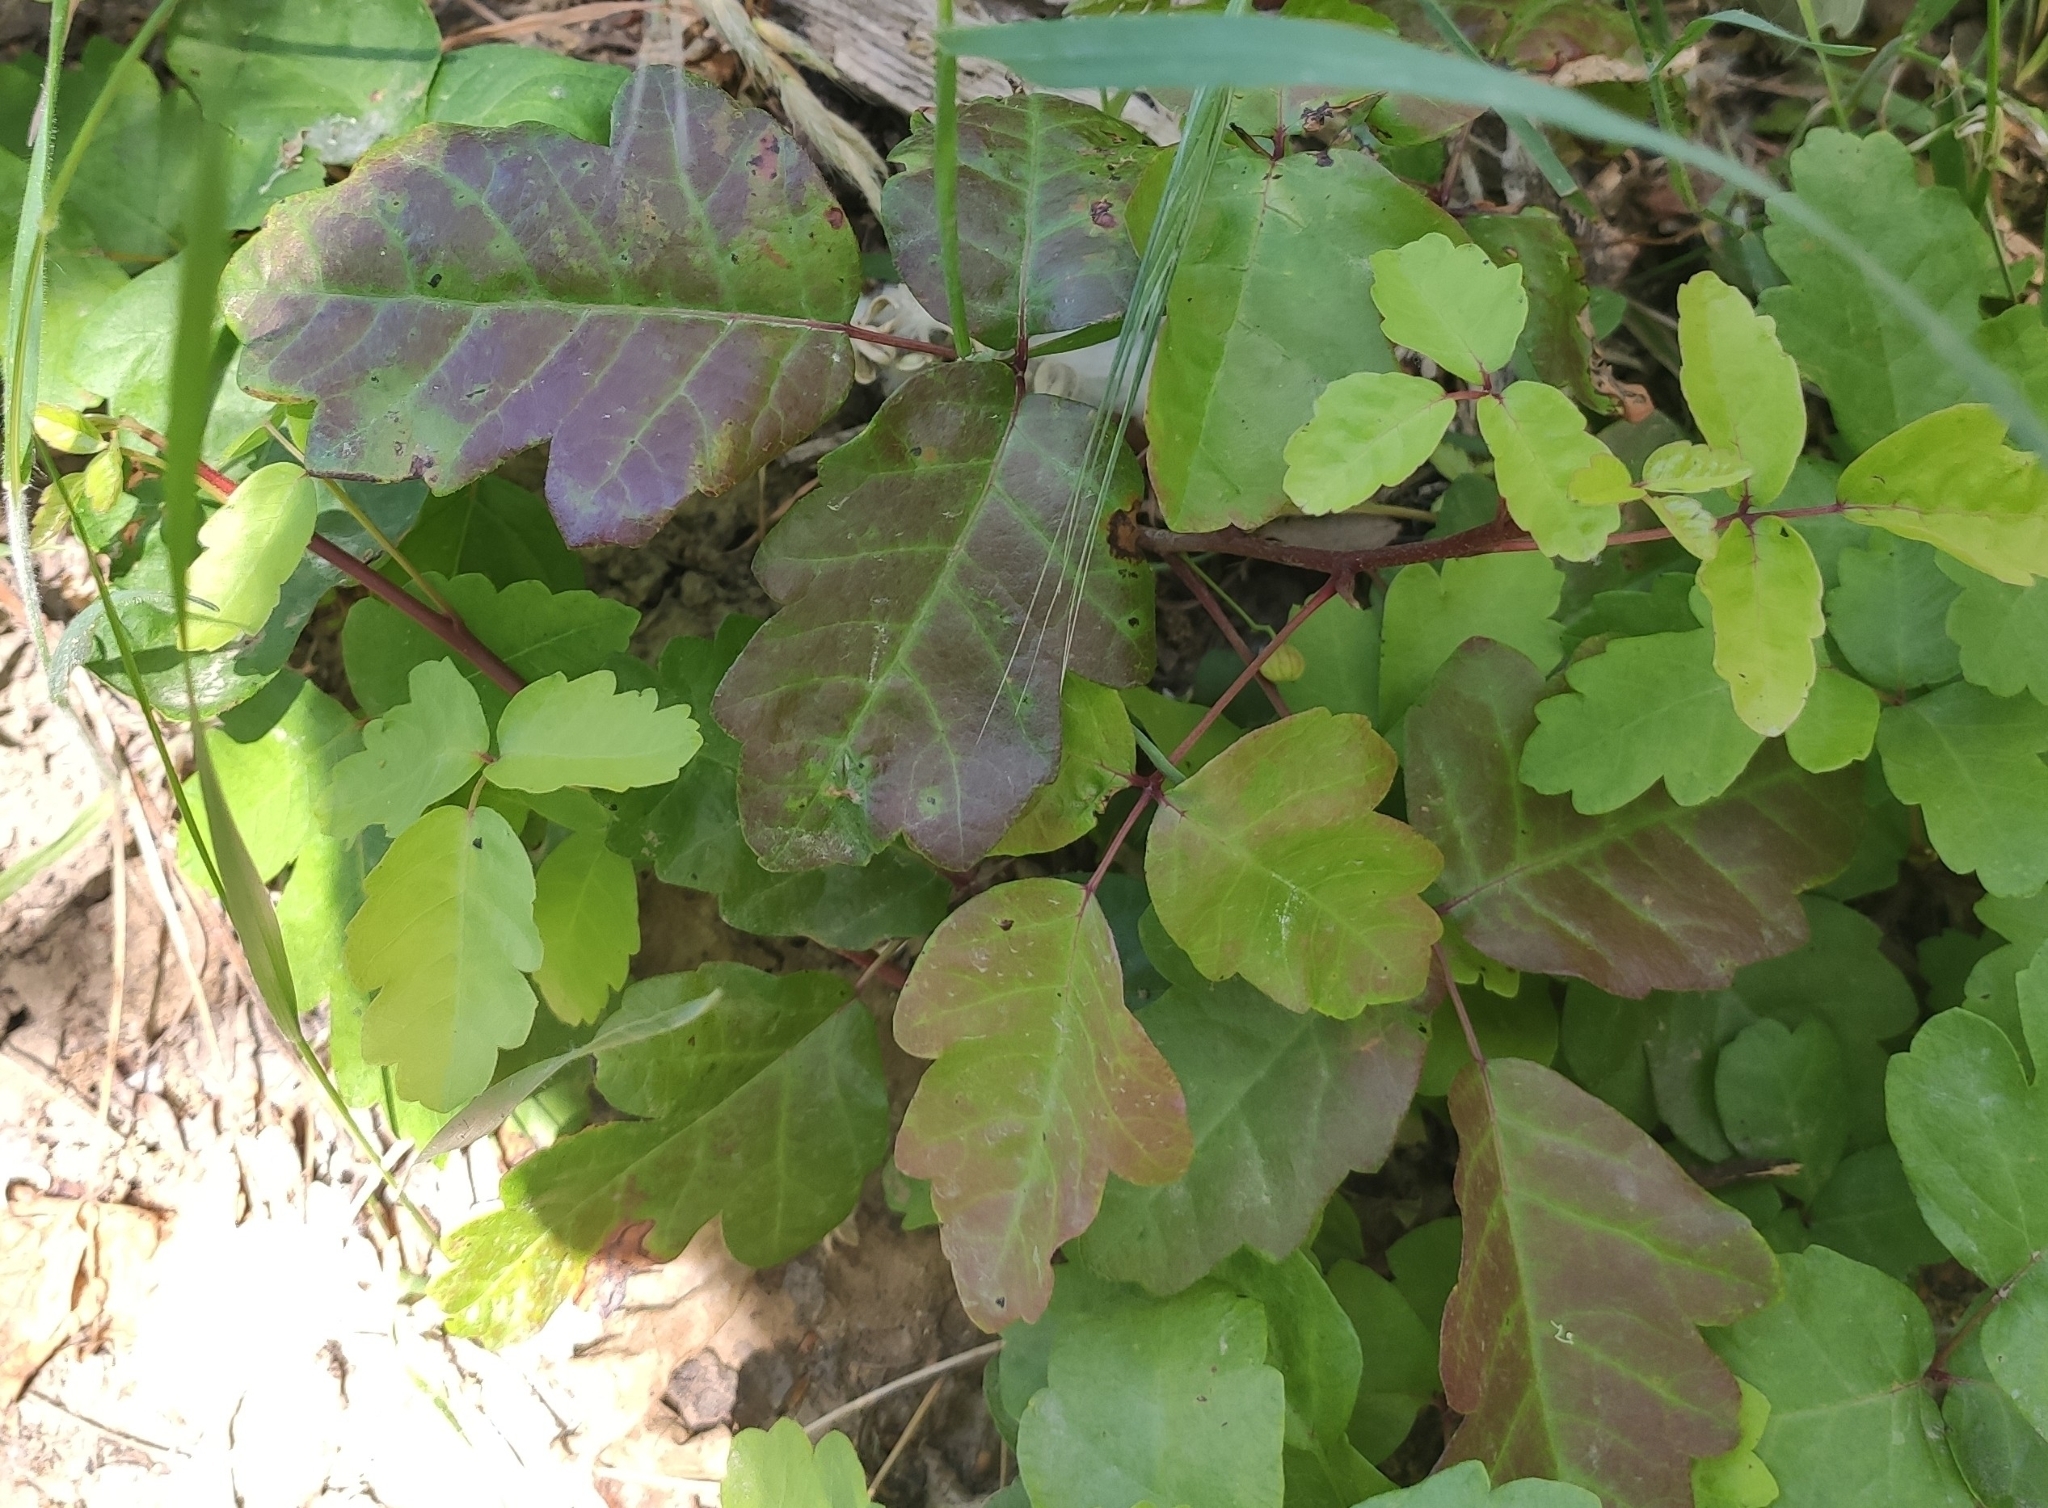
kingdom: Plantae
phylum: Tracheophyta
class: Magnoliopsida
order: Sapindales
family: Anacardiaceae
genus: Toxicodendron
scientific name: Toxicodendron diversilobum
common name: Pacific poison-oak
